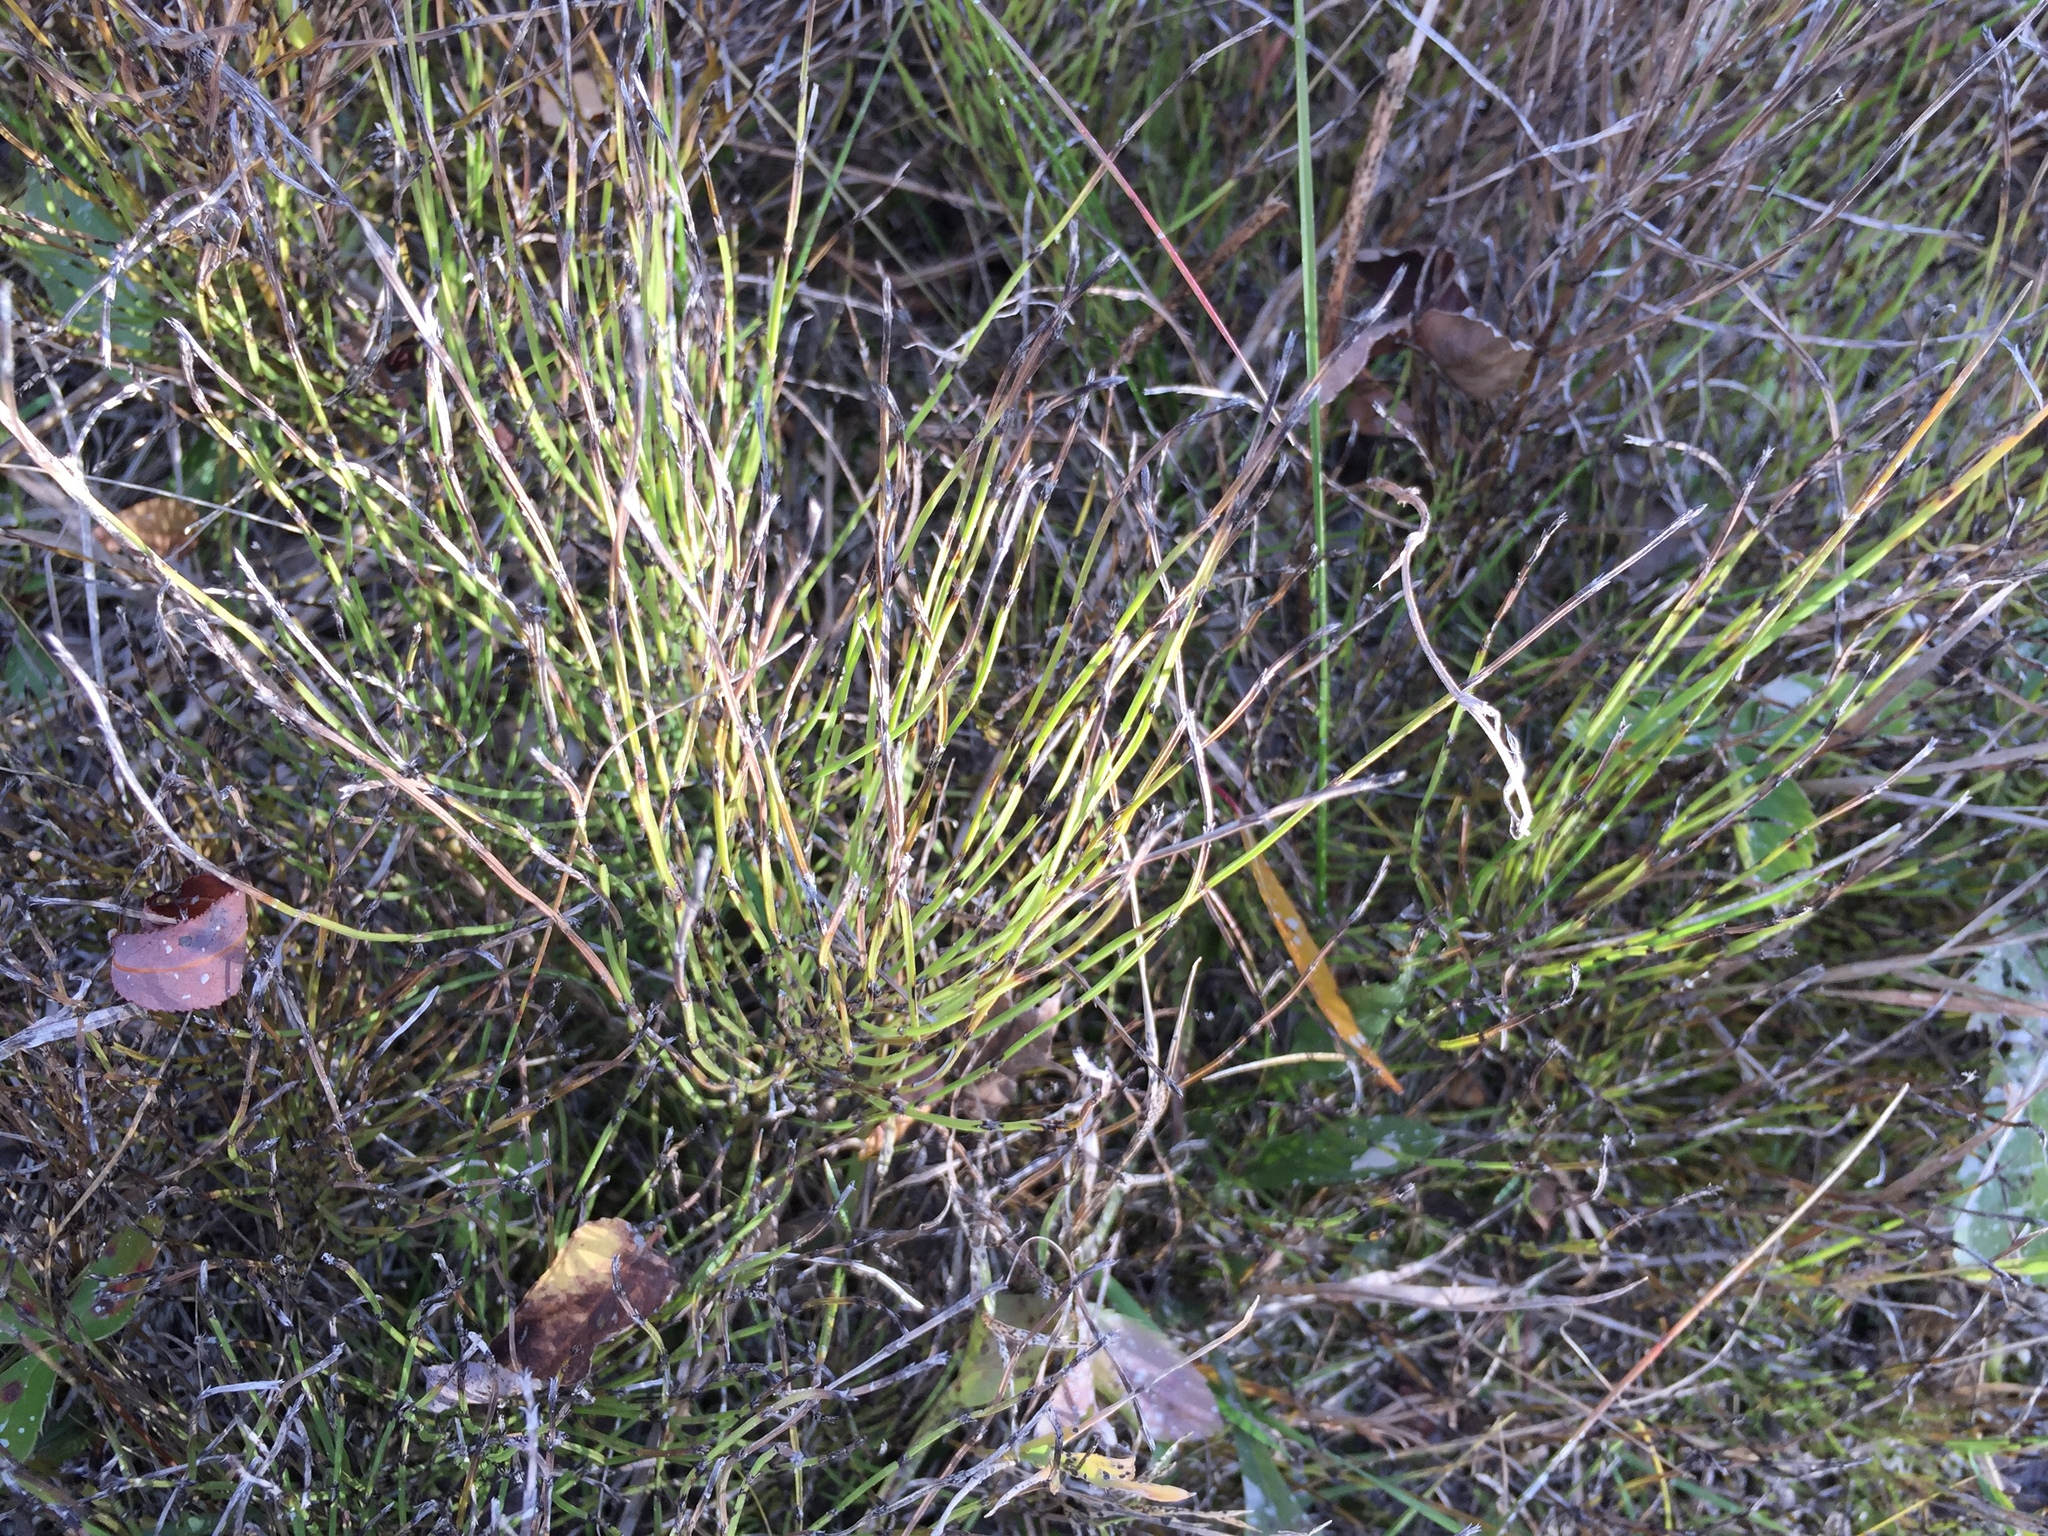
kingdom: Plantae
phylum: Tracheophyta
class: Polypodiopsida
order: Equisetales
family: Equisetaceae
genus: Equisetum
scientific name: Equisetum arvense
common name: Field horsetail
